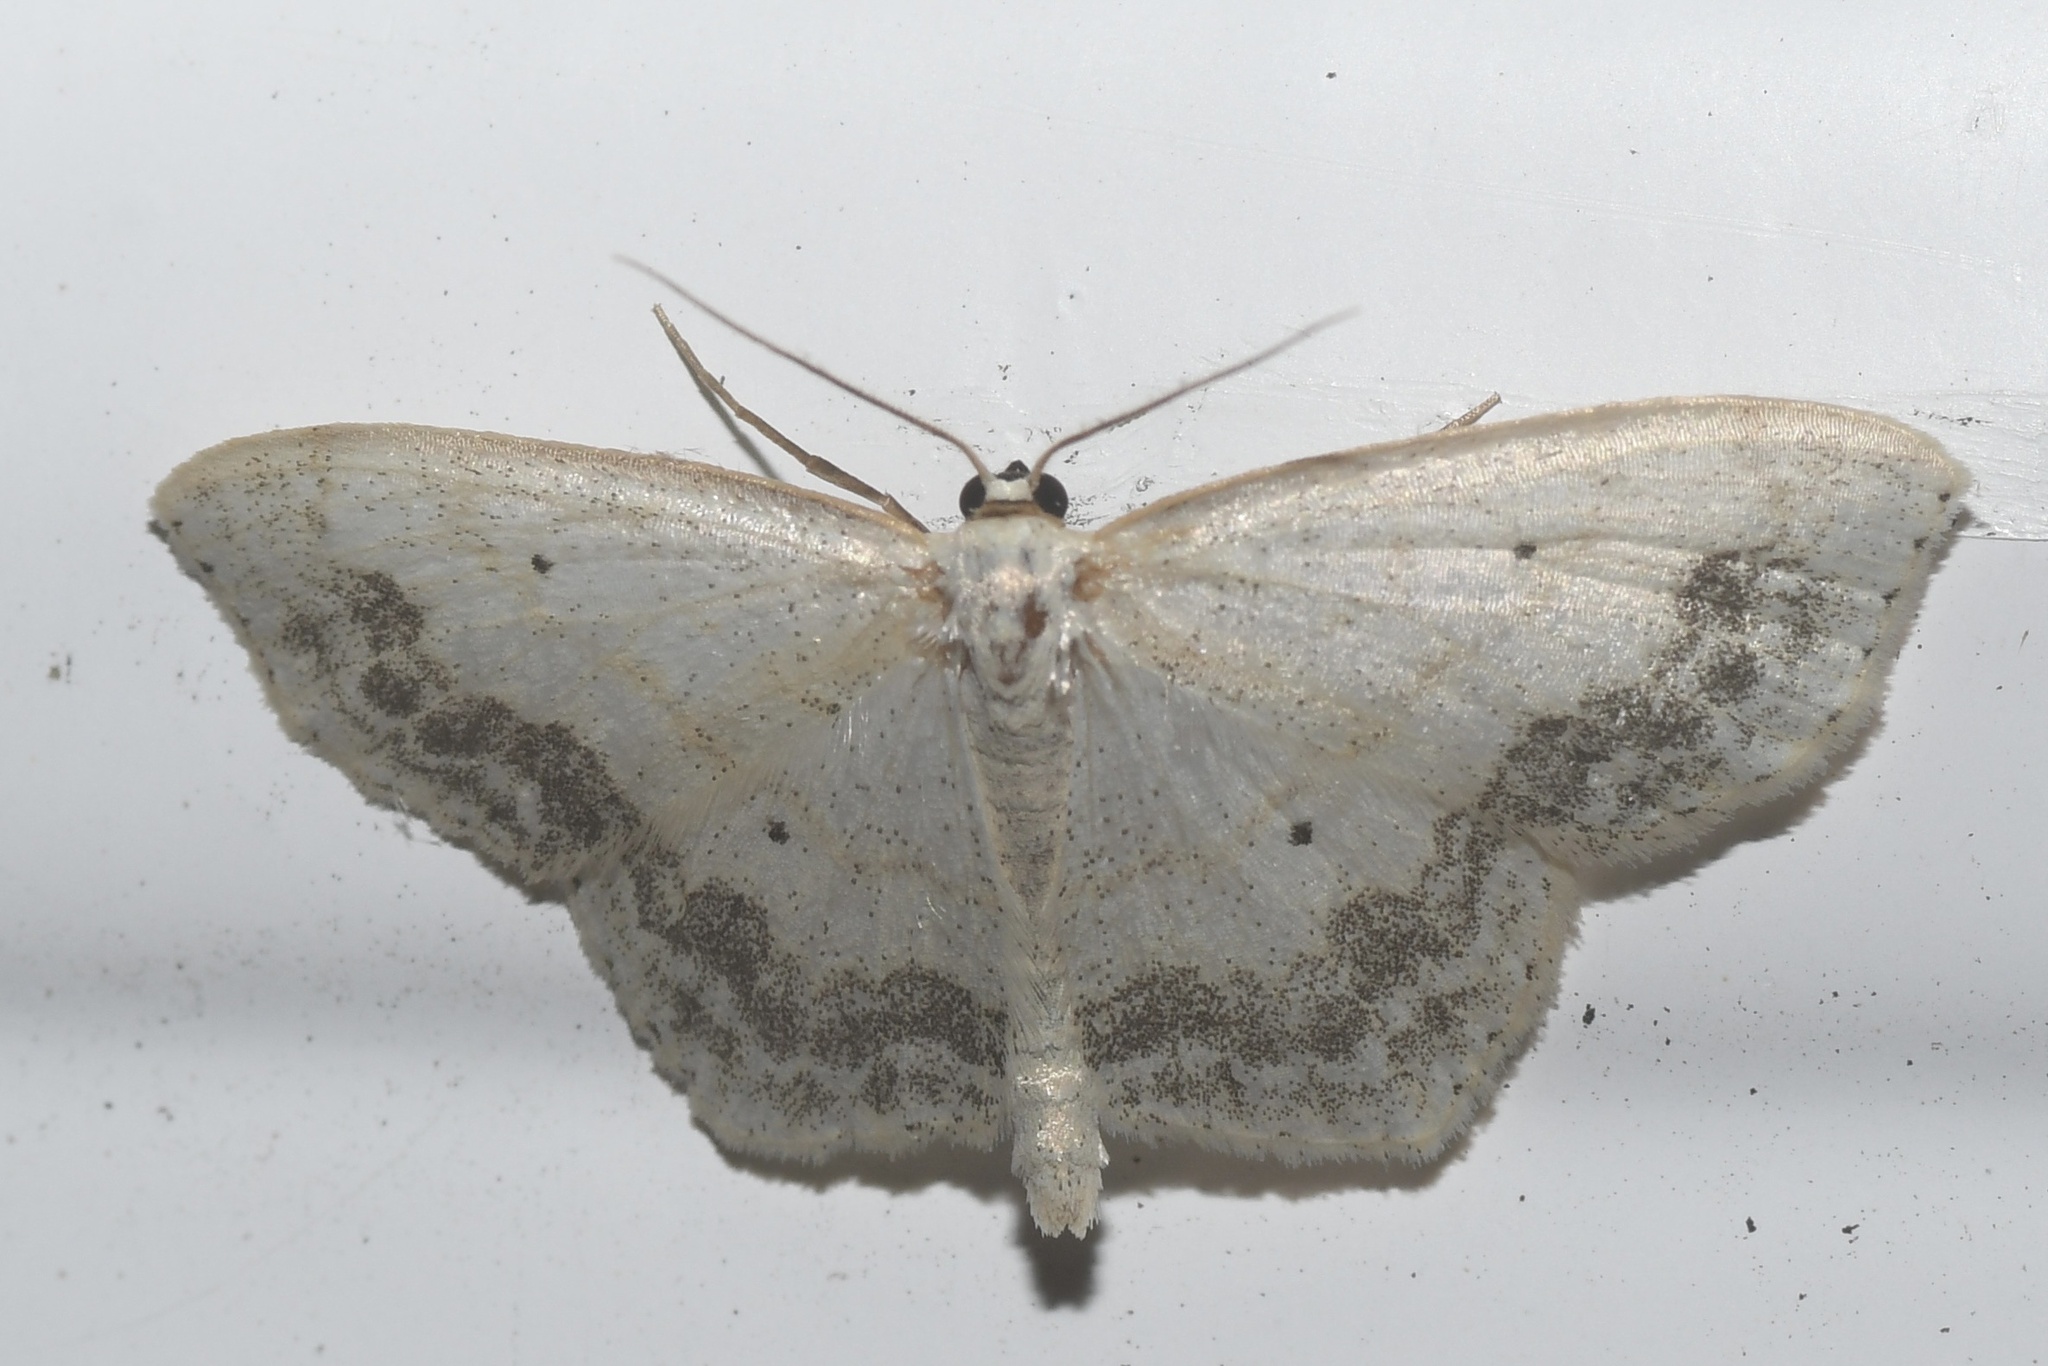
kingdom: Animalia
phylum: Arthropoda
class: Insecta
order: Lepidoptera
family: Geometridae
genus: Scopula
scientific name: Scopula limboundata
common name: Large lace border
